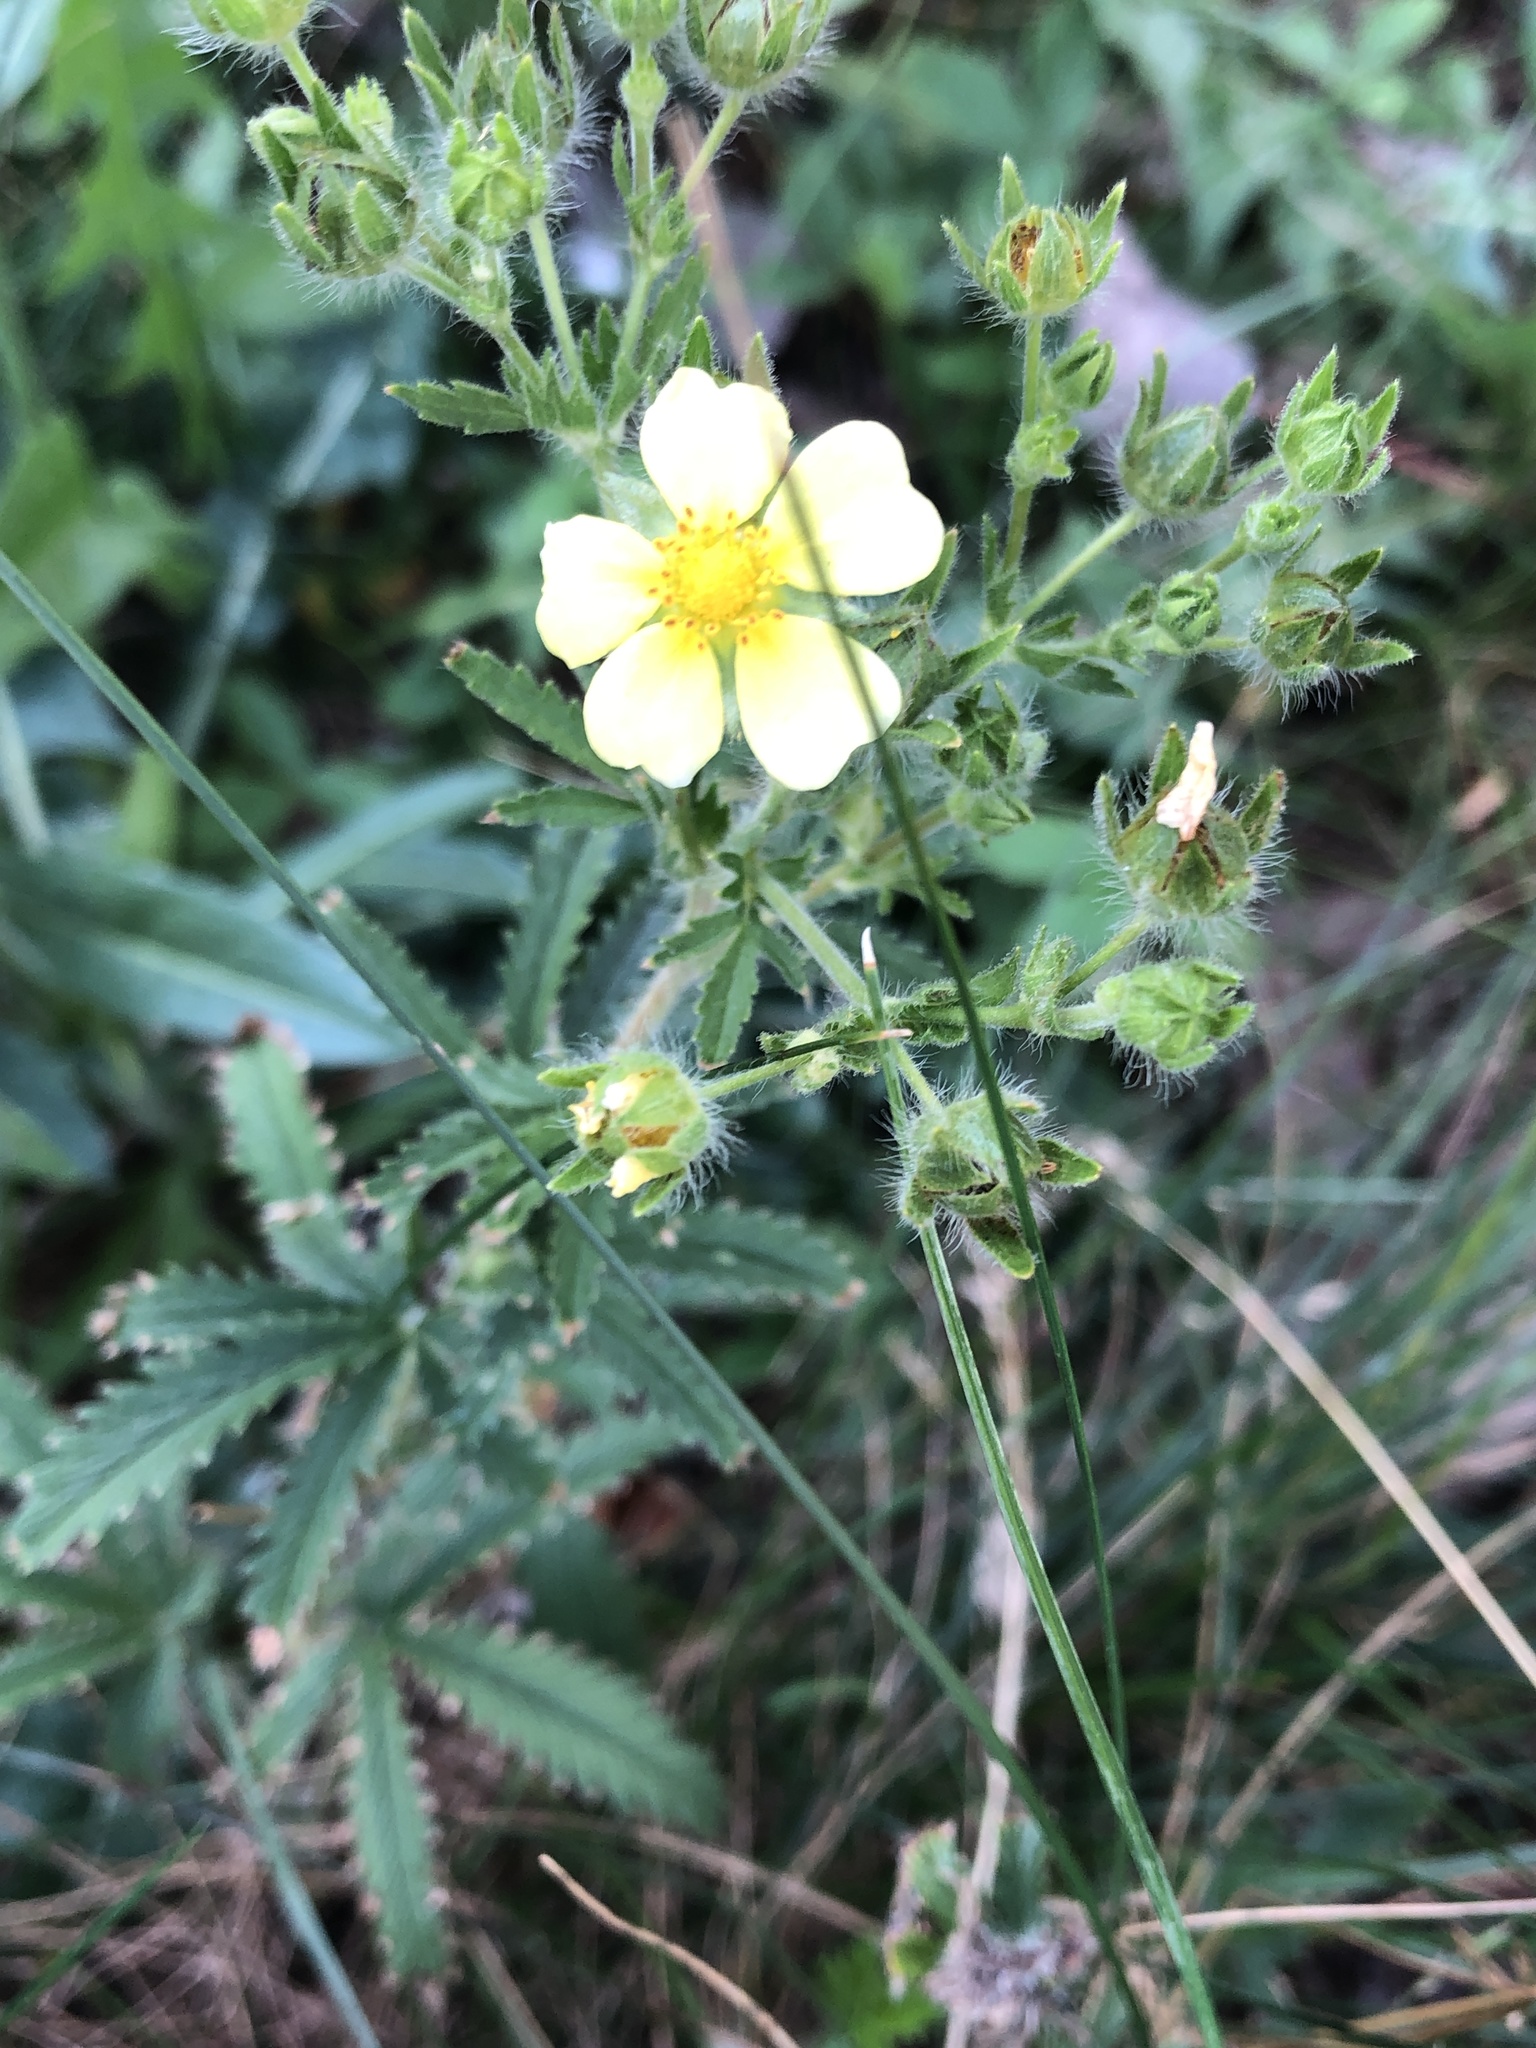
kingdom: Plantae
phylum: Tracheophyta
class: Magnoliopsida
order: Rosales
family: Rosaceae
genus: Potentilla
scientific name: Potentilla recta
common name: Sulphur cinquefoil
